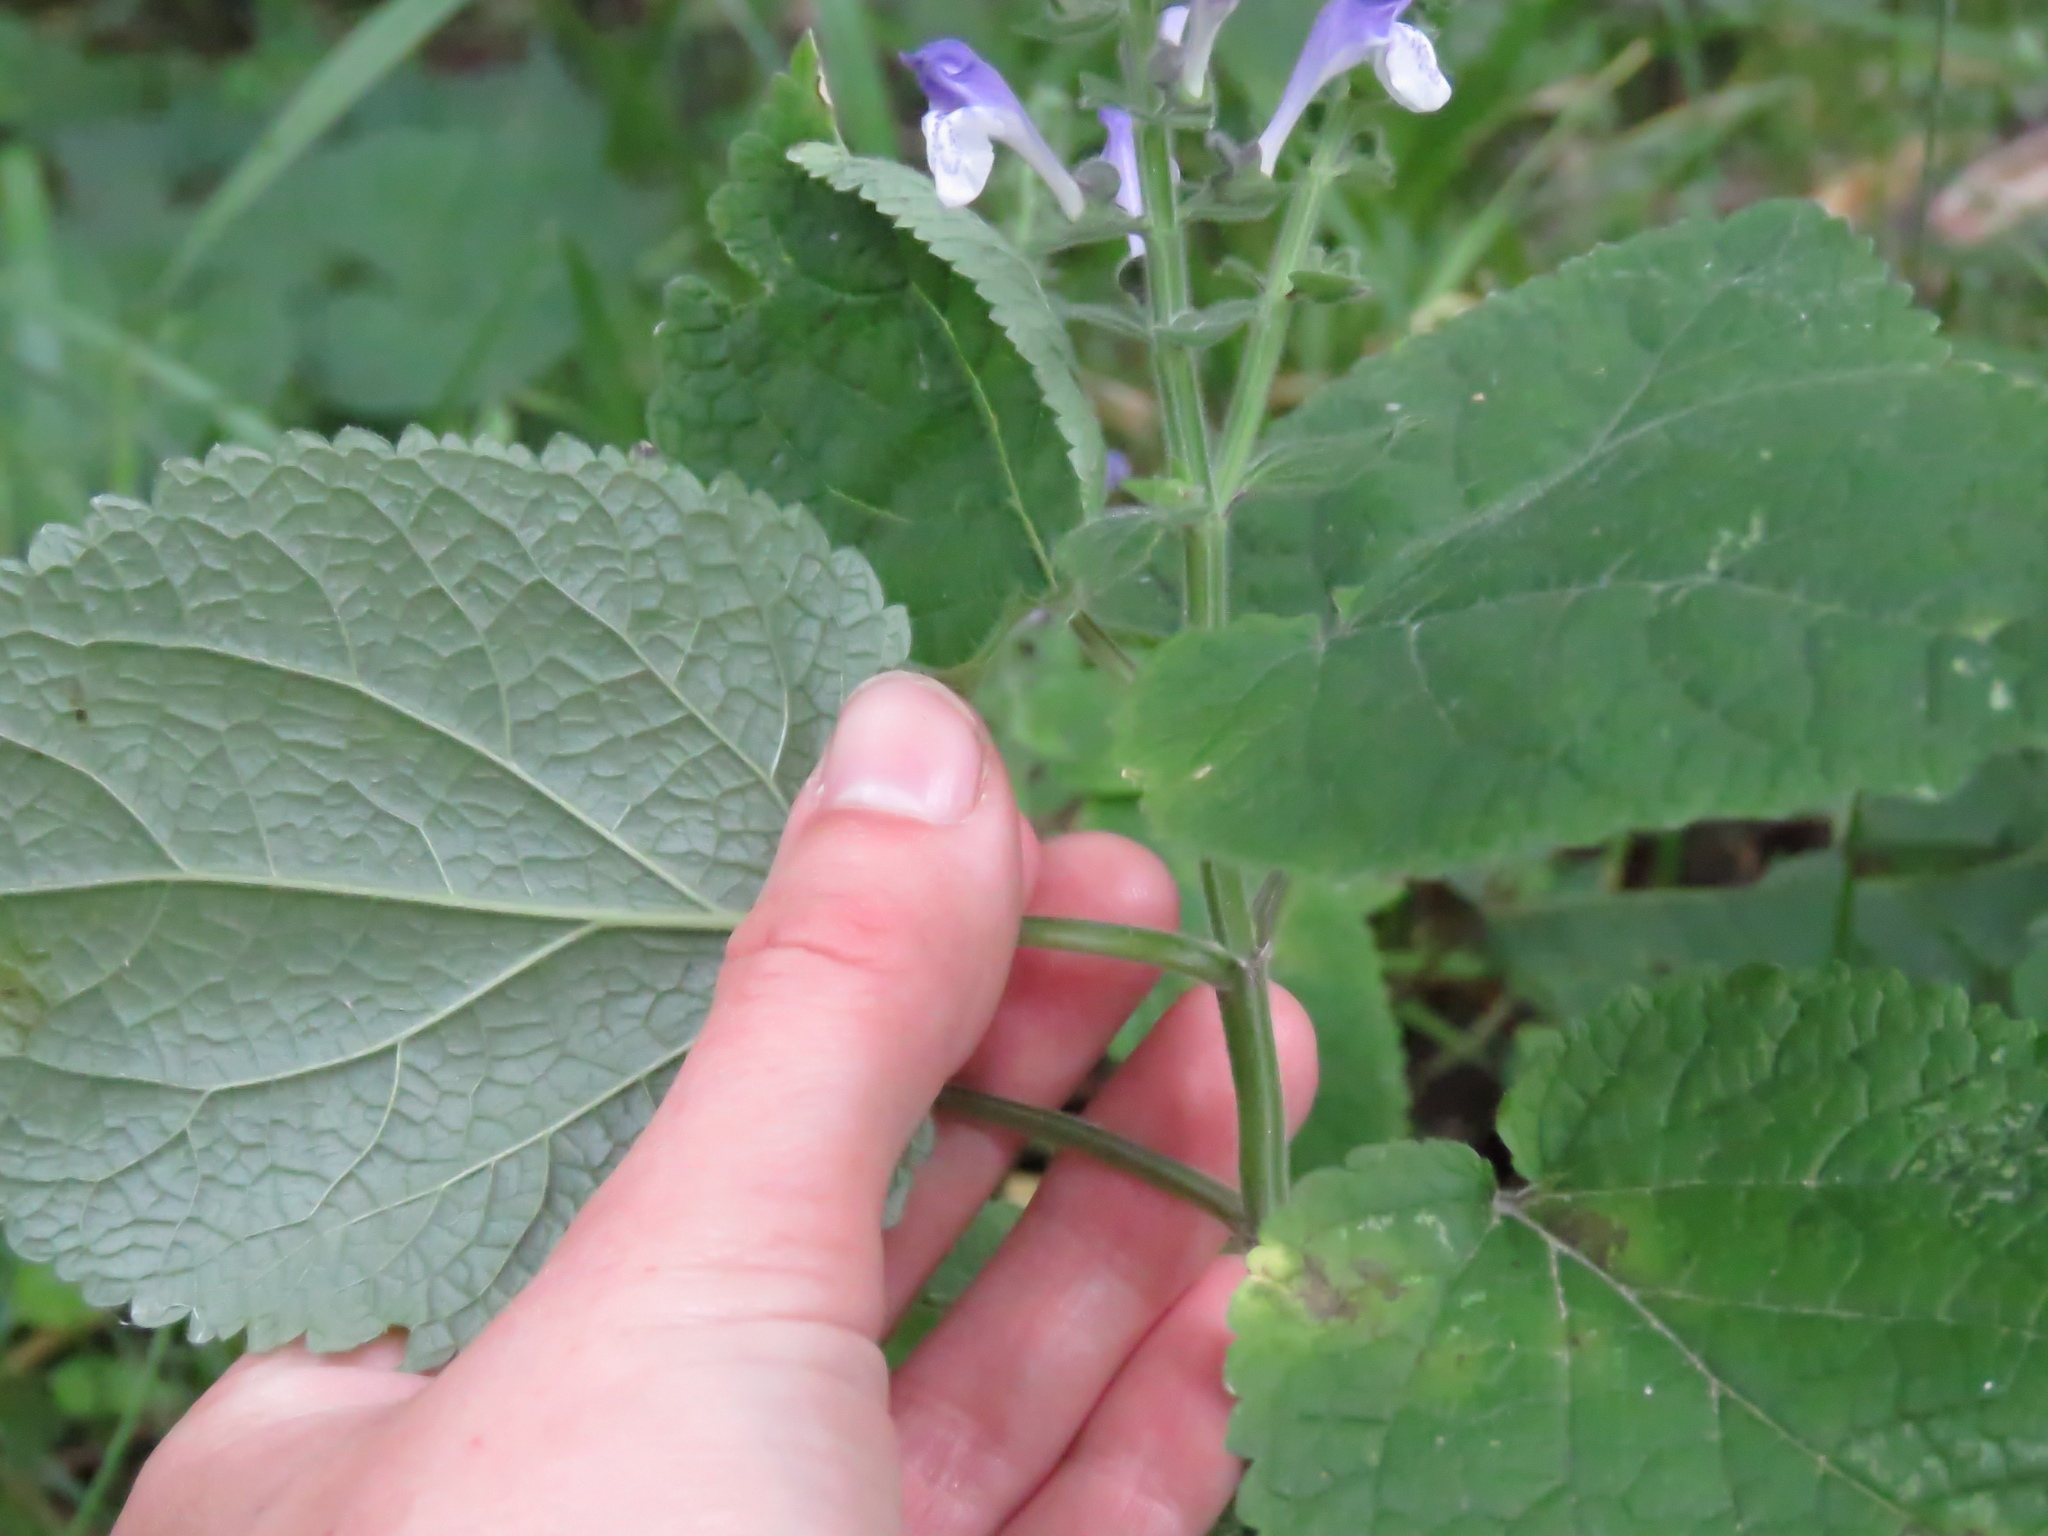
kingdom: Plantae
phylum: Tracheophyta
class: Magnoliopsida
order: Lamiales
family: Lamiaceae
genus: Scutellaria
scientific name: Scutellaria ovata
